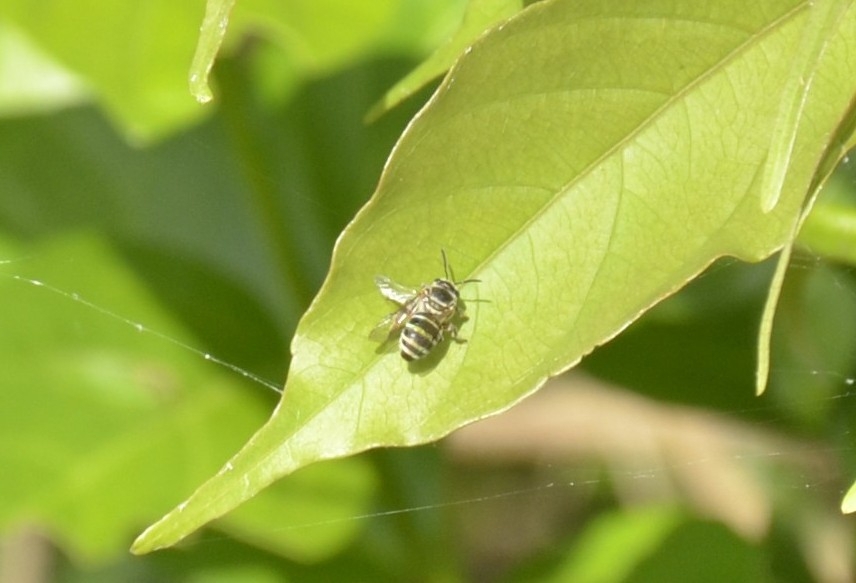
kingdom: Animalia
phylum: Arthropoda
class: Insecta
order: Hymenoptera
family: Halictidae
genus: Nomia
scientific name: Nomia westwoodi
